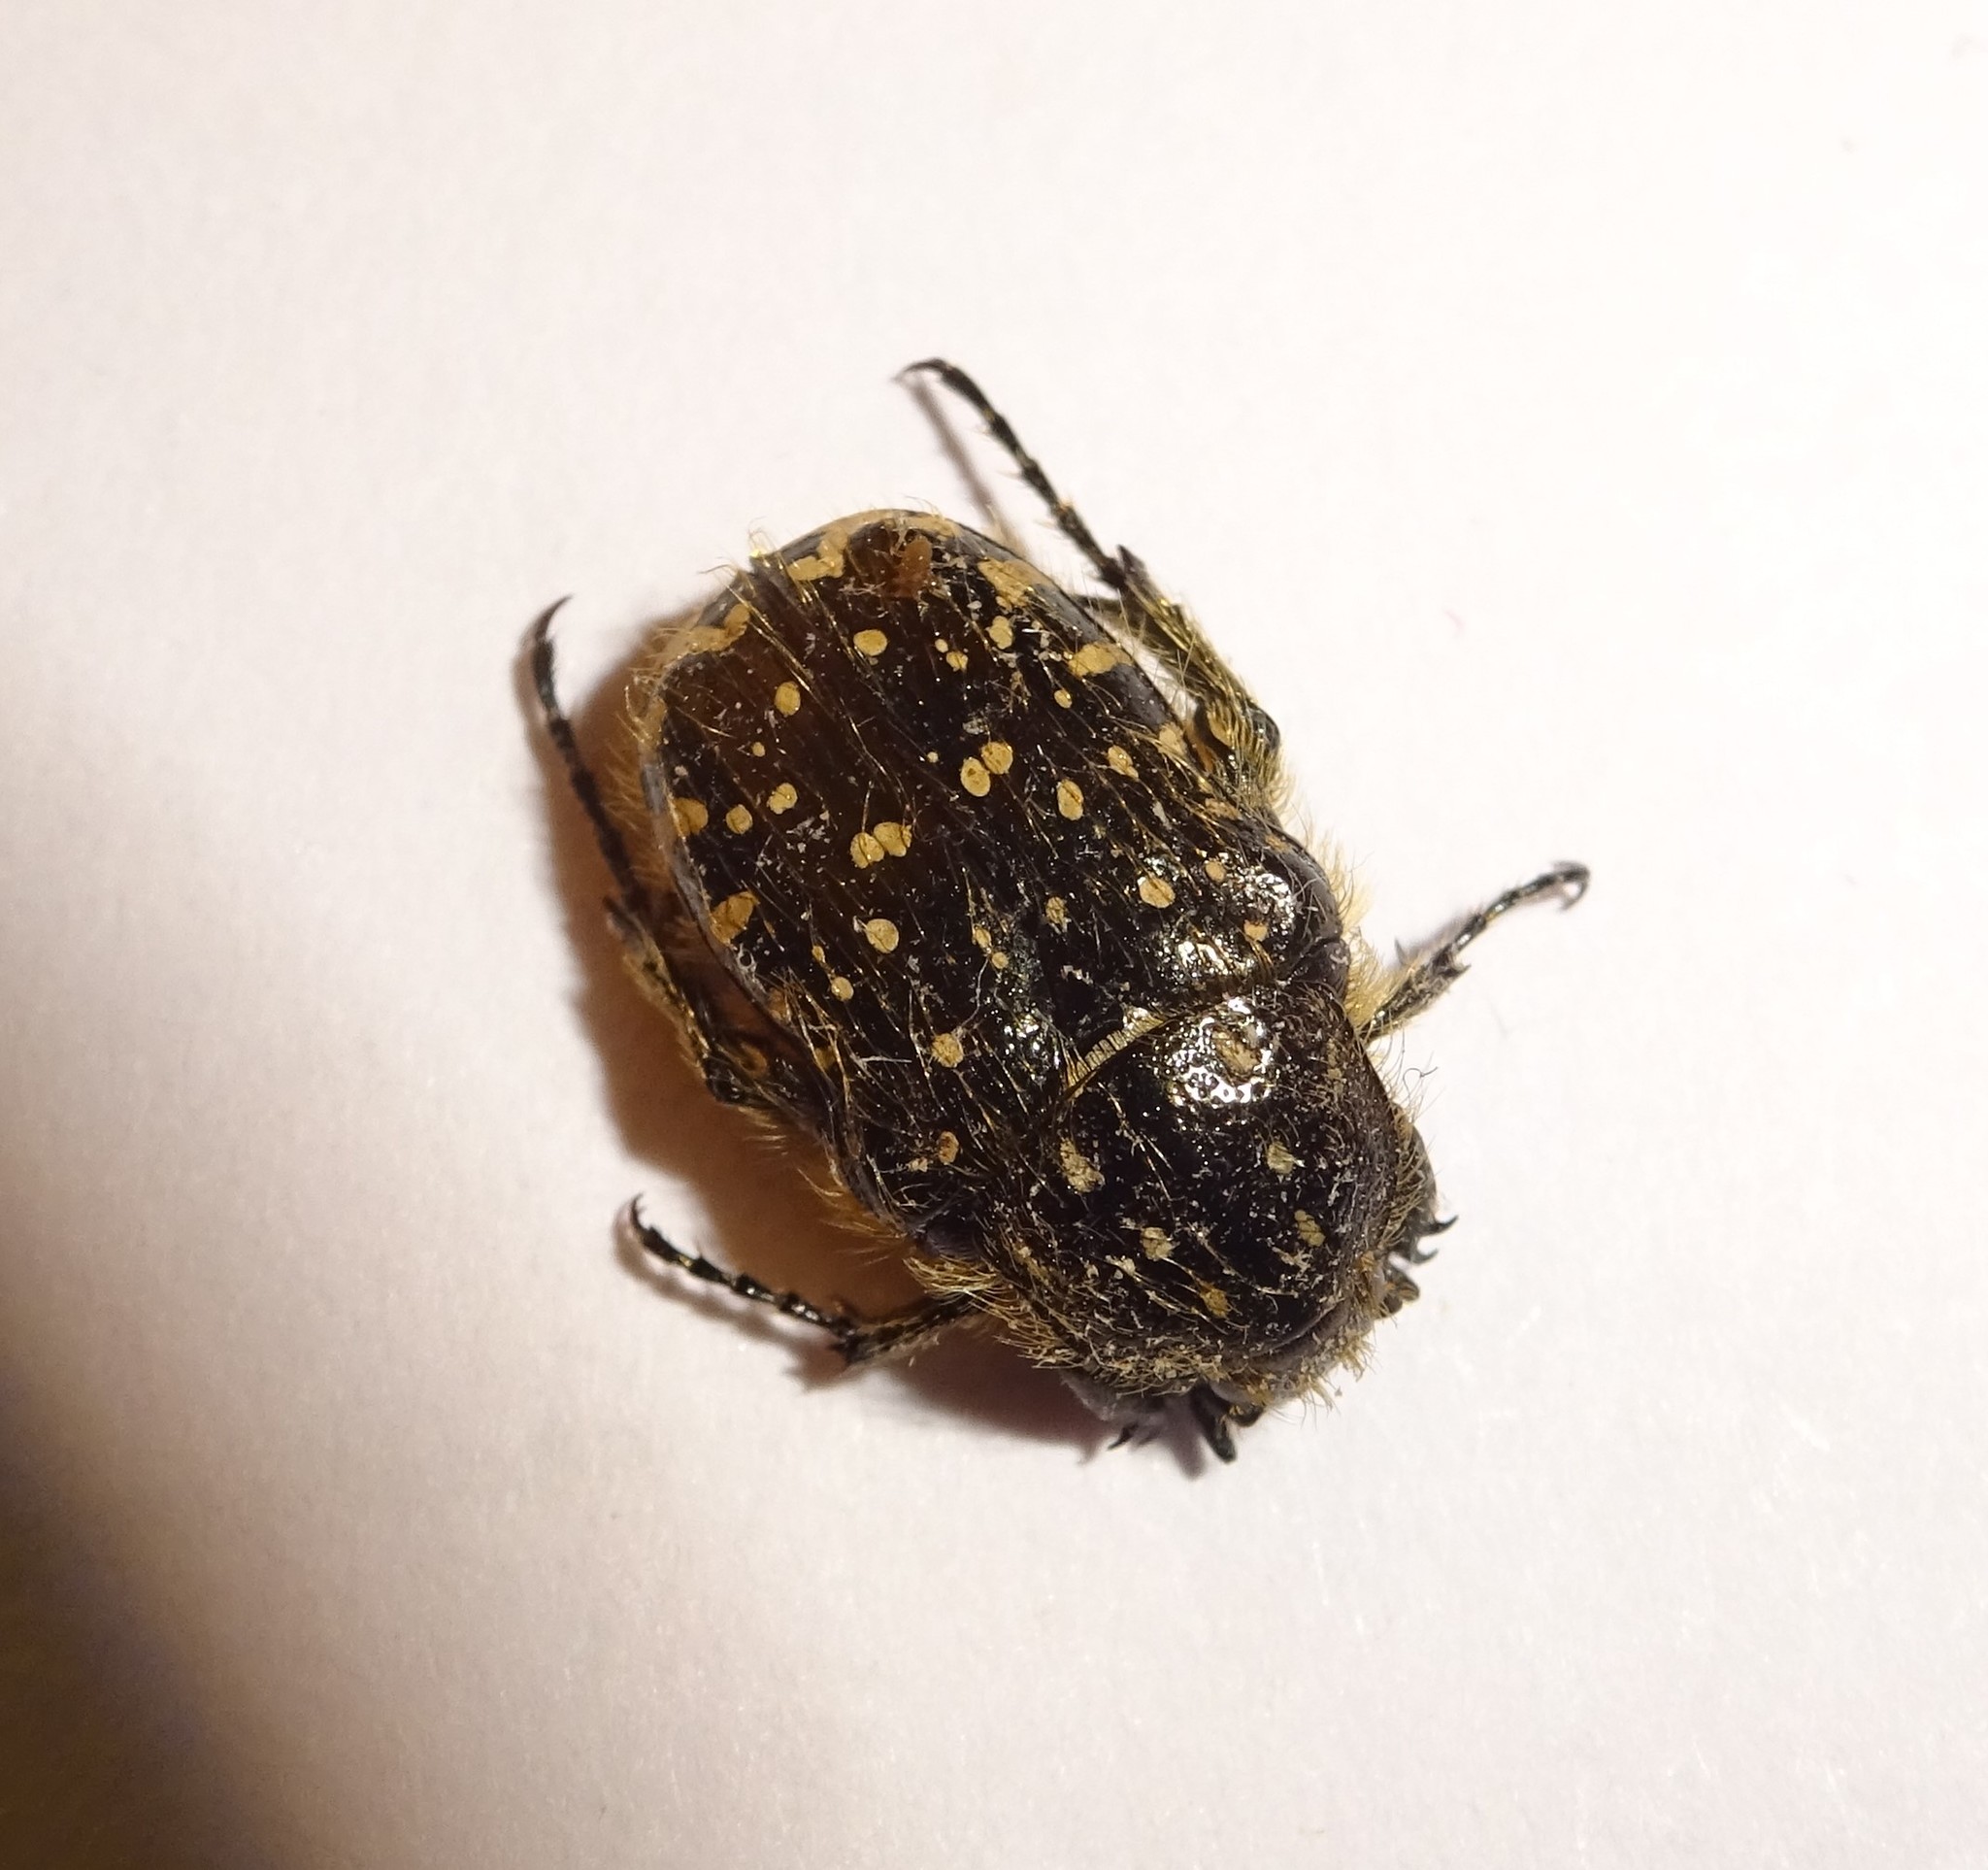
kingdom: Animalia
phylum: Arthropoda
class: Insecta
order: Coleoptera
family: Scarabaeidae
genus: Oxythyrea
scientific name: Oxythyrea funesta
